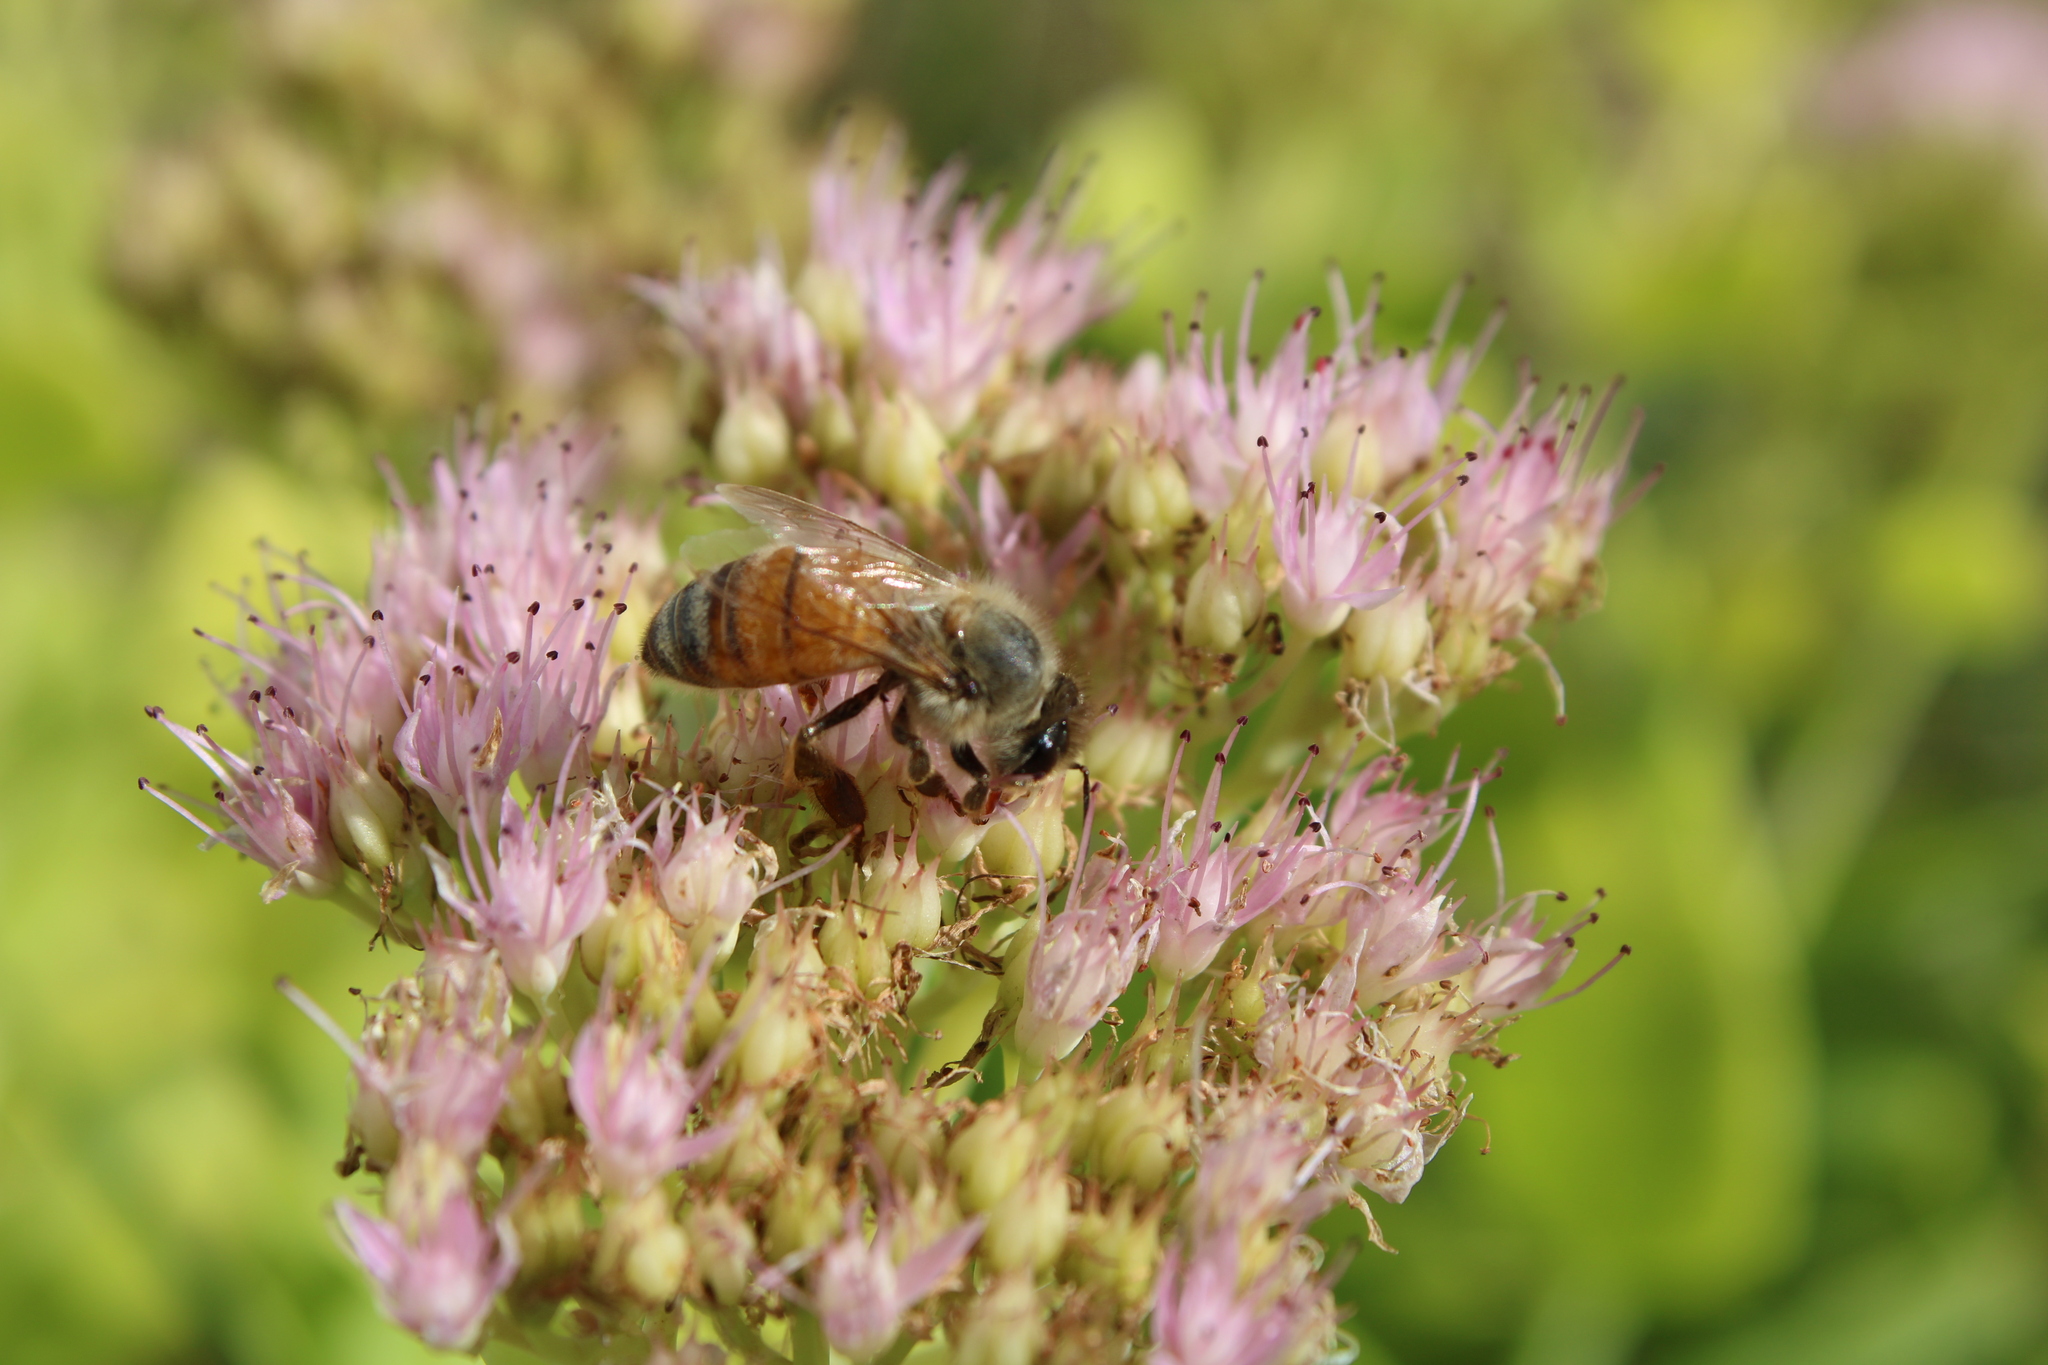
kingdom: Animalia
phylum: Arthropoda
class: Insecta
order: Hymenoptera
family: Apidae
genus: Apis
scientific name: Apis mellifera
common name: Honey bee
